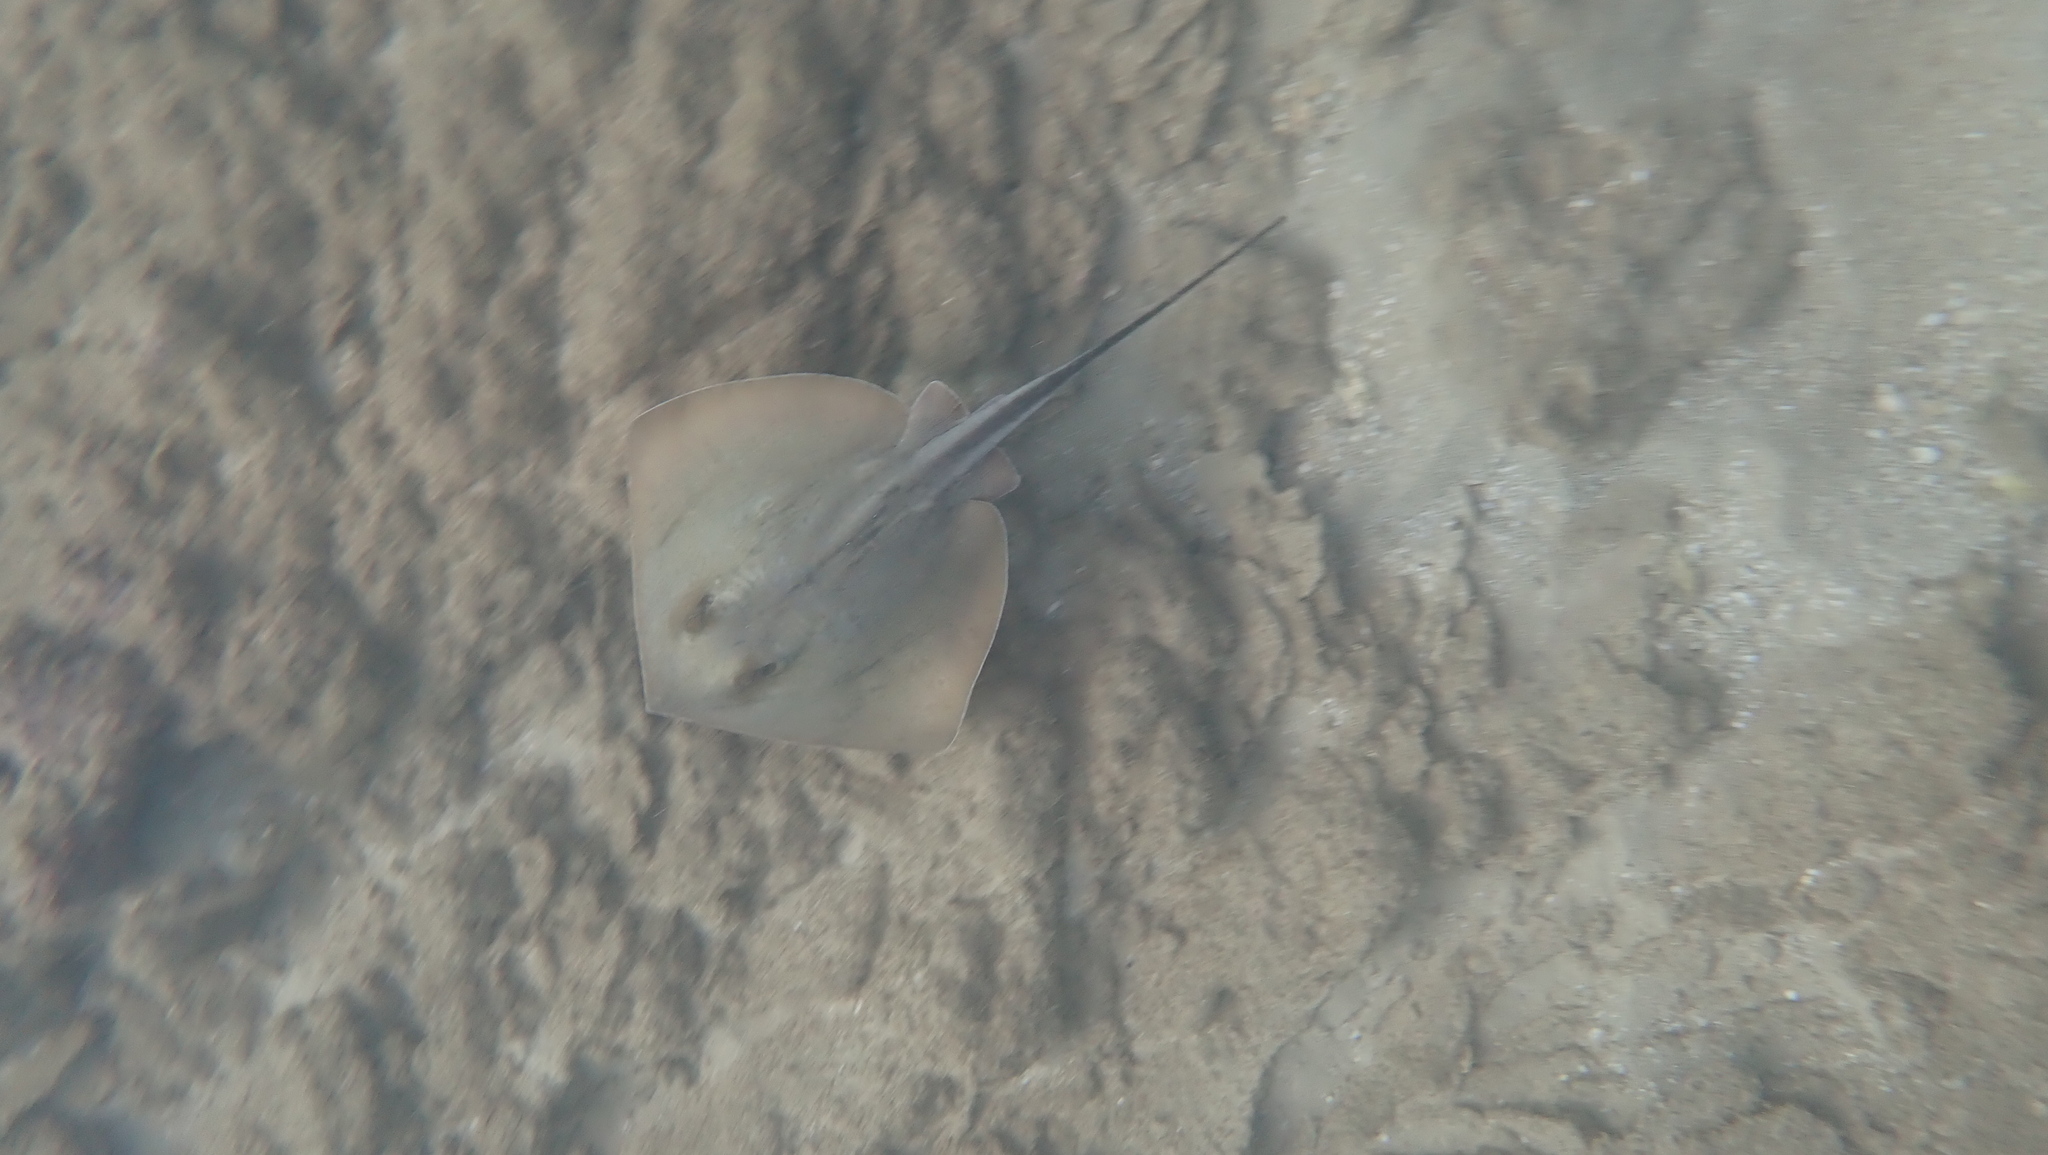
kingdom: Animalia
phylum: Chordata
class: Elasmobranchii
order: Myliobatiformes
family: Dasyatidae
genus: Dasyatis
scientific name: Dasyatis pastinaca
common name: Common stingray
